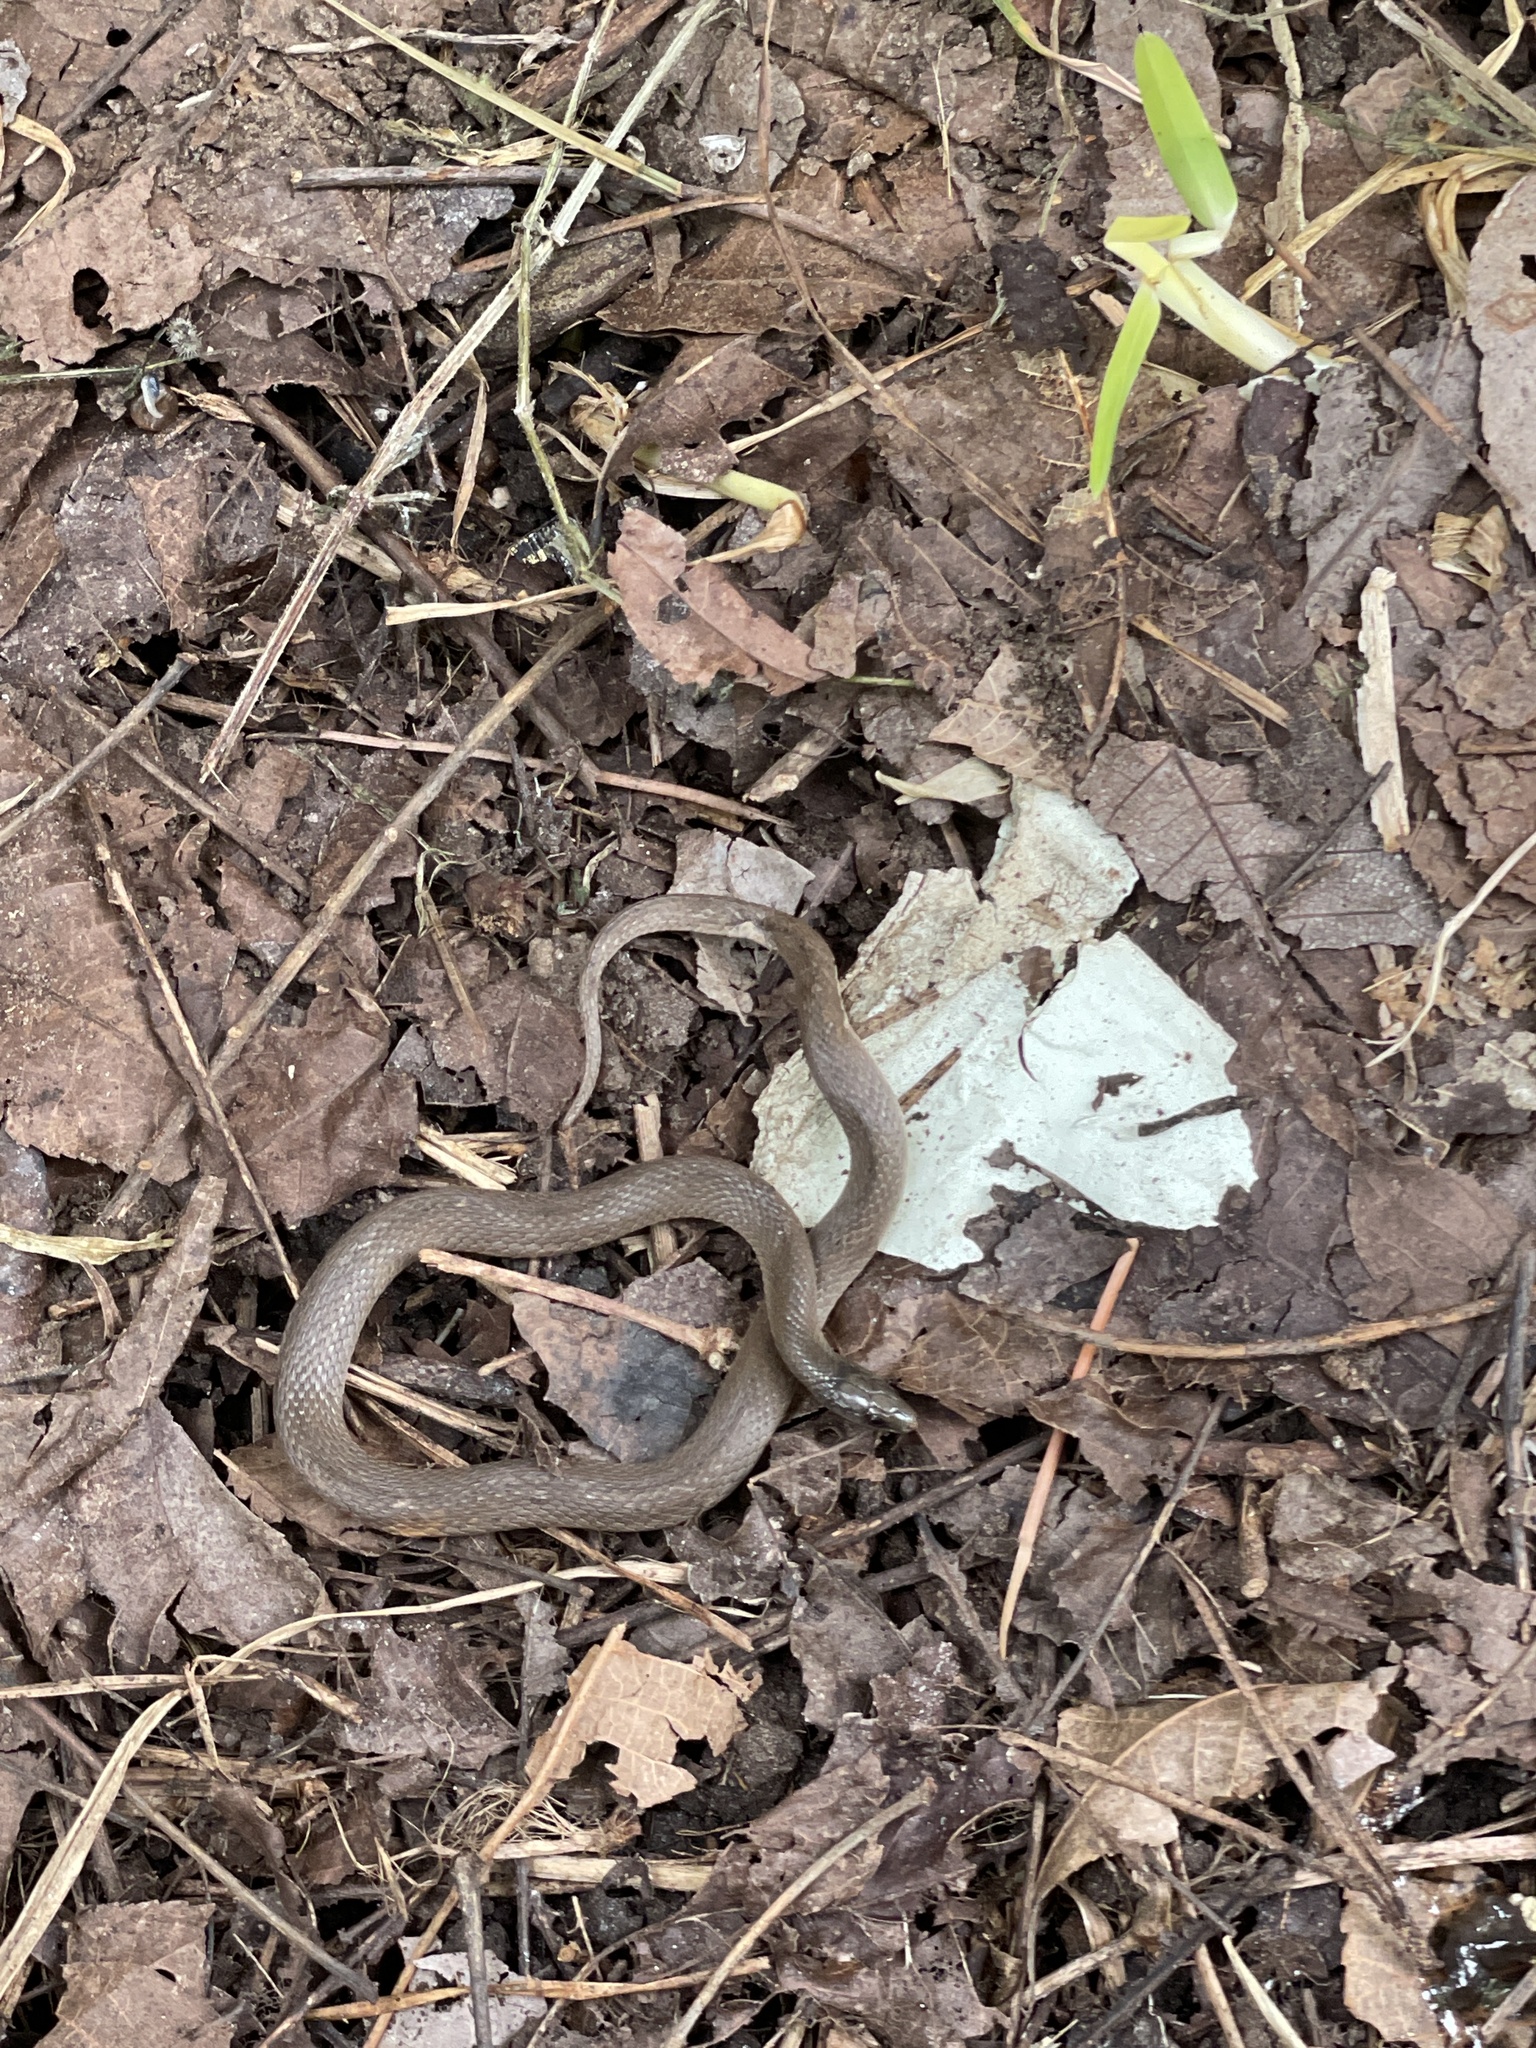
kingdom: Animalia
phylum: Chordata
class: Squamata
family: Colubridae
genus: Haldea
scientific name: Haldea striatula
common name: Rough earth snake
